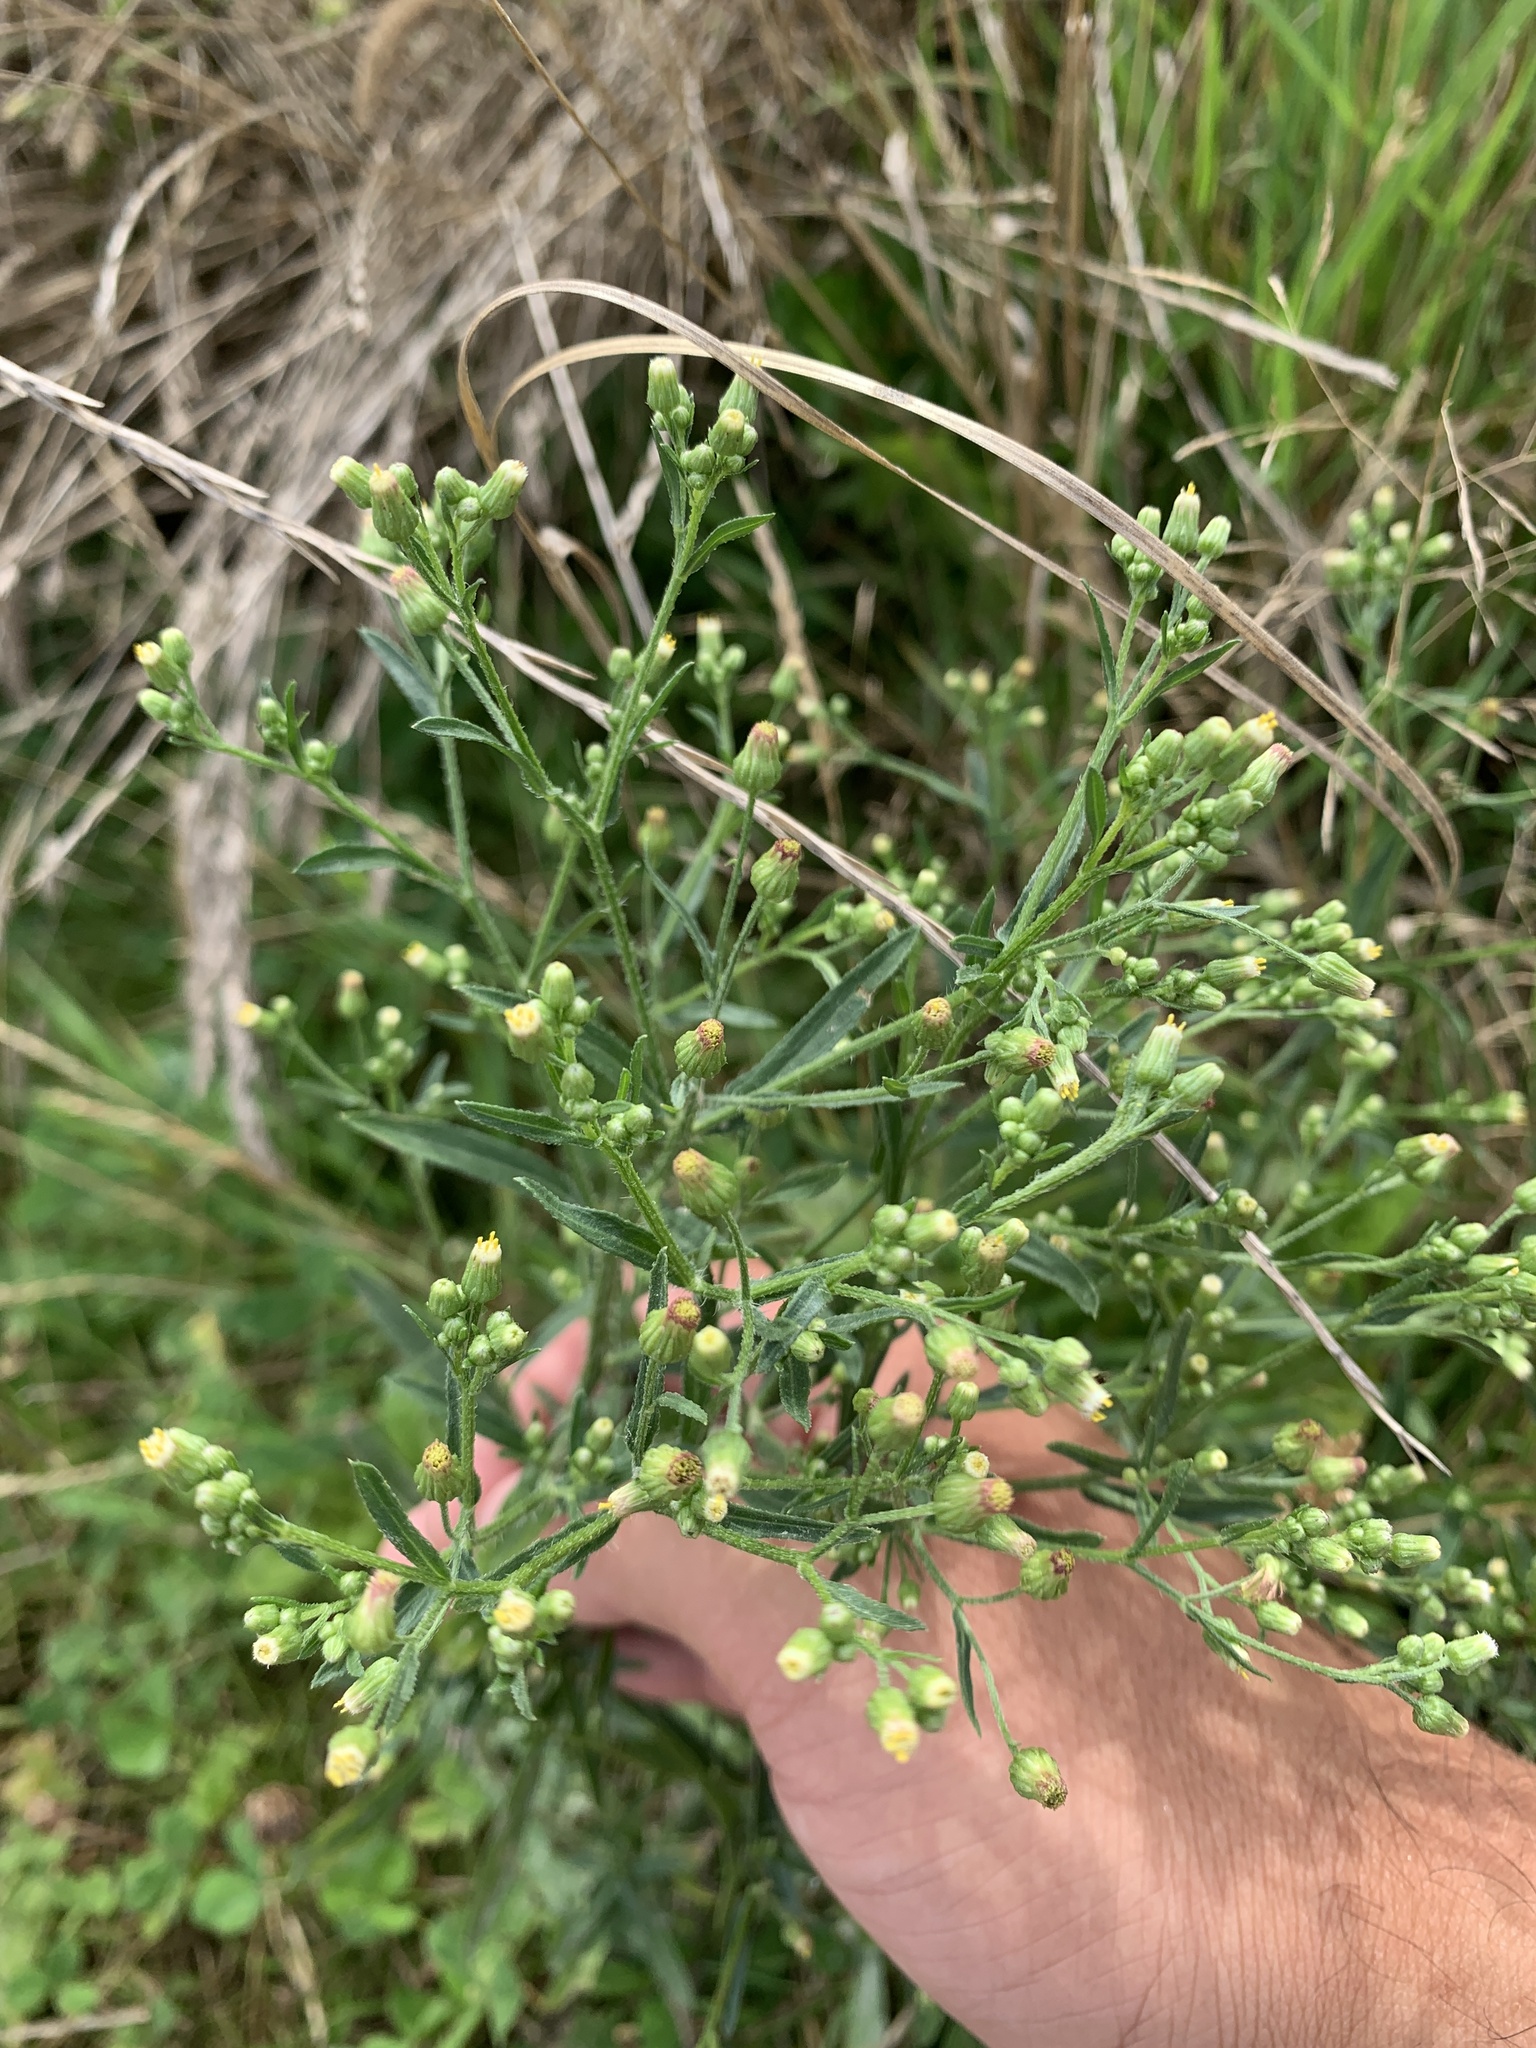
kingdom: Plantae
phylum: Tracheophyta
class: Magnoliopsida
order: Asterales
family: Asteraceae
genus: Erigeron
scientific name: Erigeron canadensis
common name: Canadian fleabane
